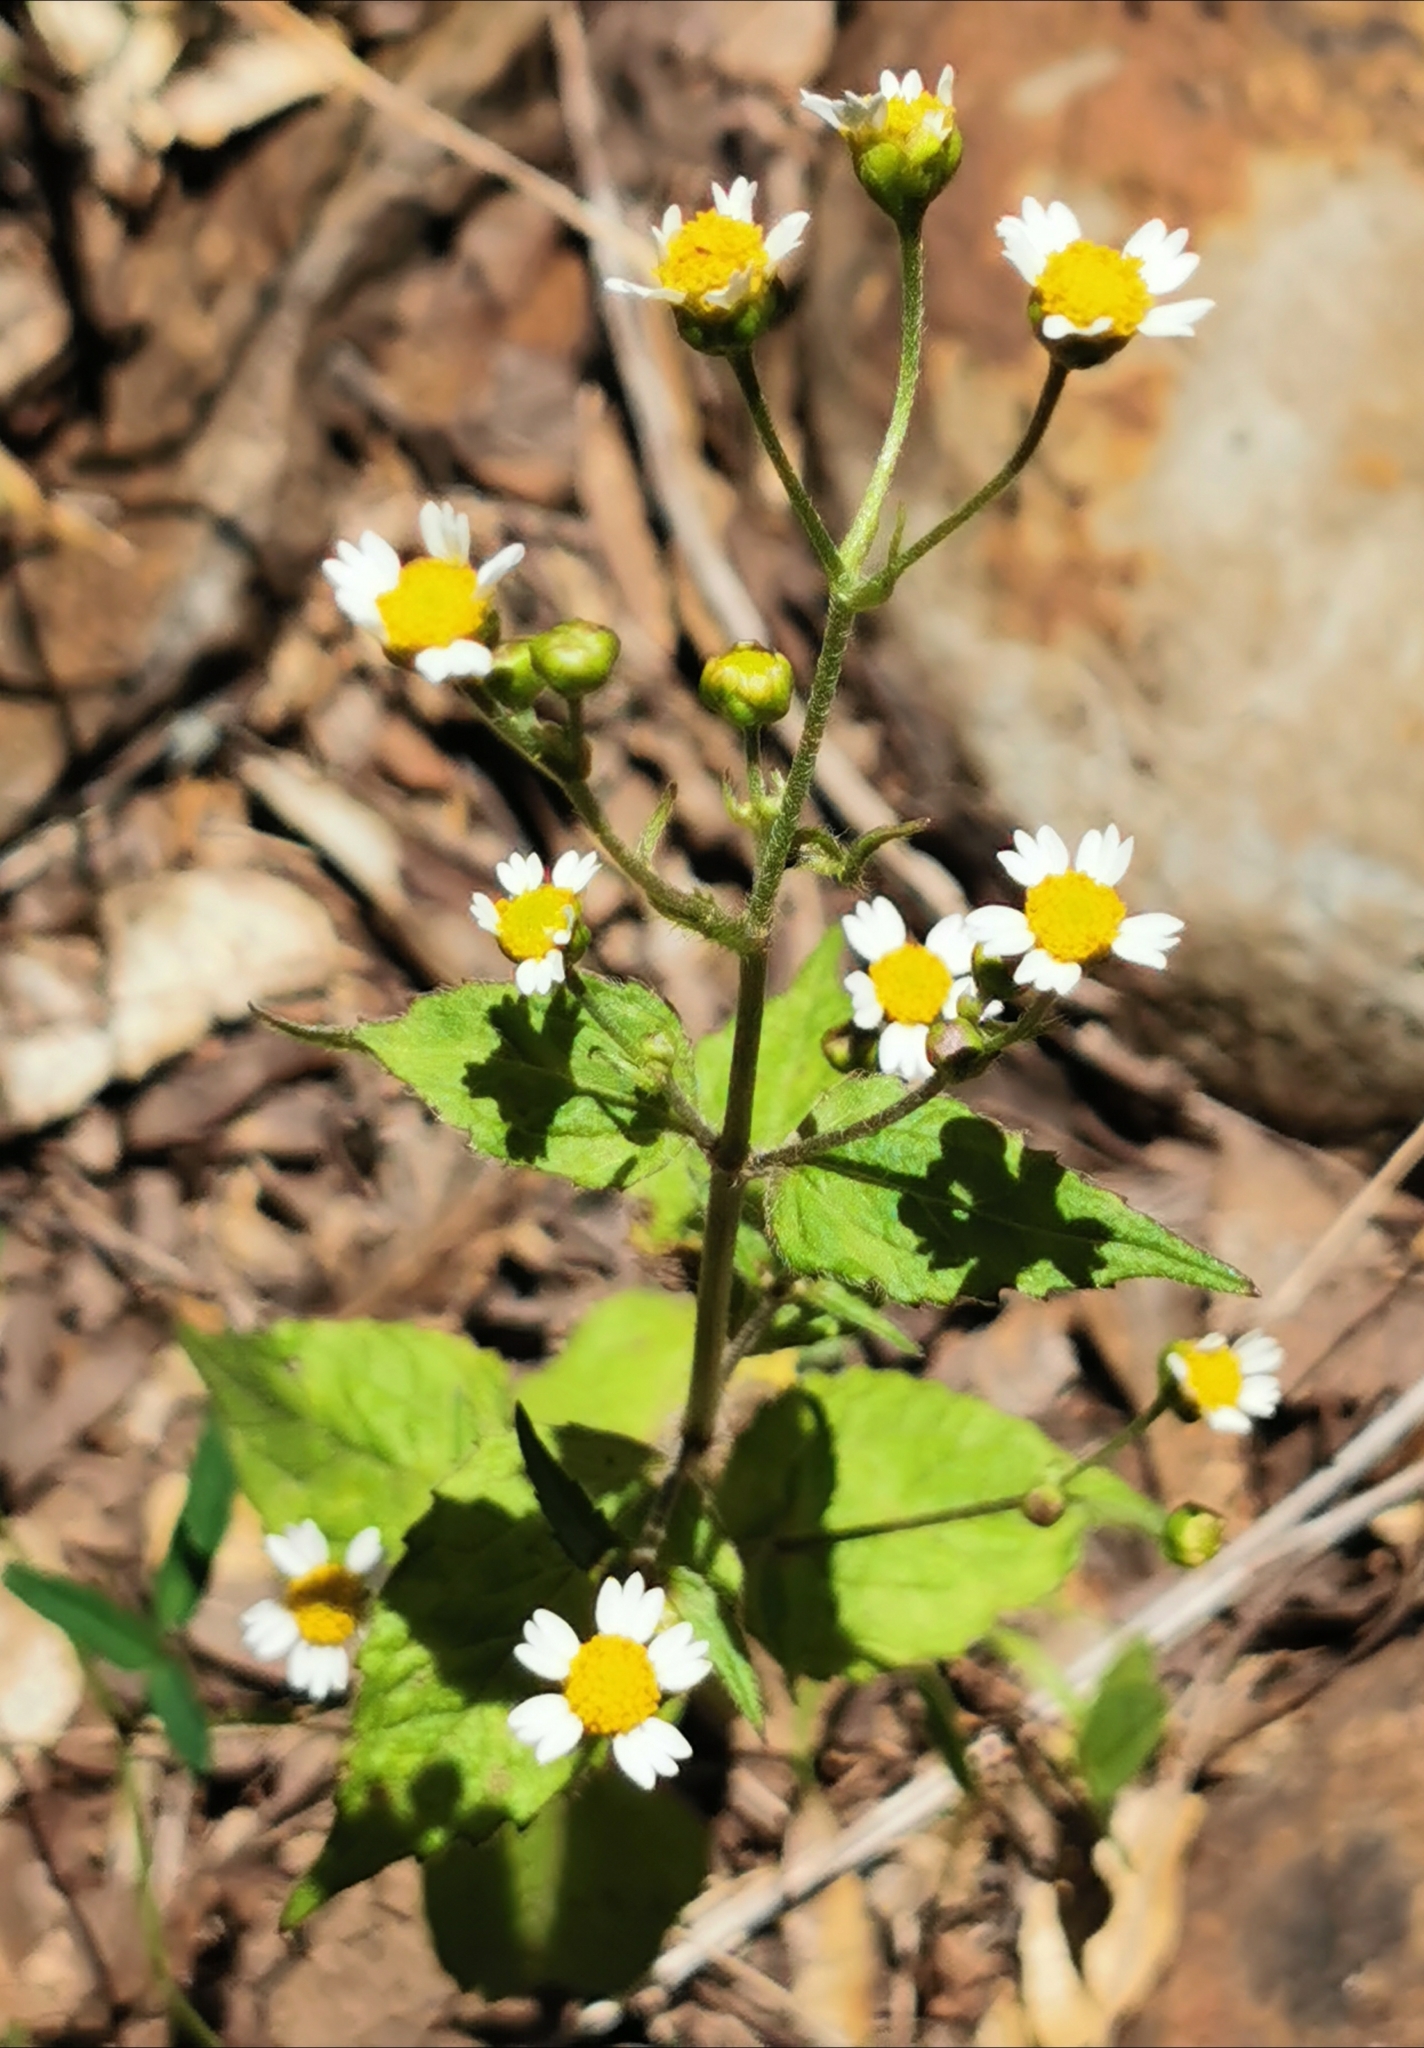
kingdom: Plantae
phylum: Tracheophyta
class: Magnoliopsida
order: Asterales
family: Asteraceae
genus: Galinsoga
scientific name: Galinsoga quadriradiata
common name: Shaggy soldier
